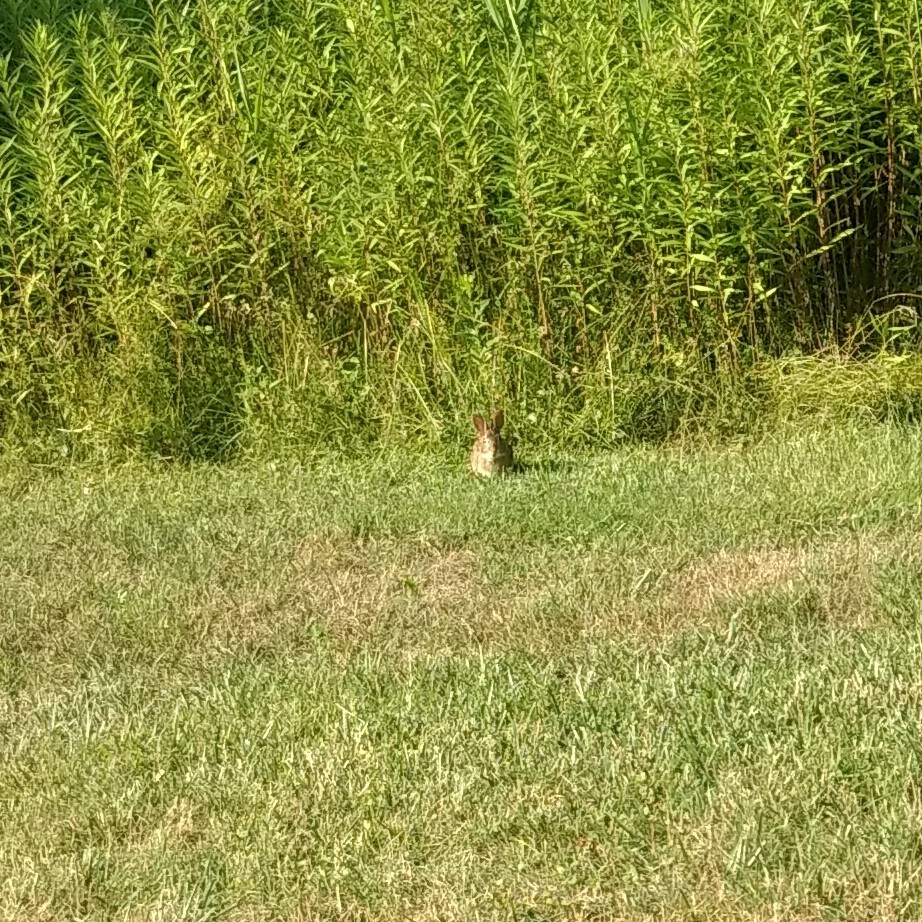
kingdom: Animalia
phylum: Chordata
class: Mammalia
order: Lagomorpha
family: Leporidae
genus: Sylvilagus
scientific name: Sylvilagus floridanus
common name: Eastern cottontail
